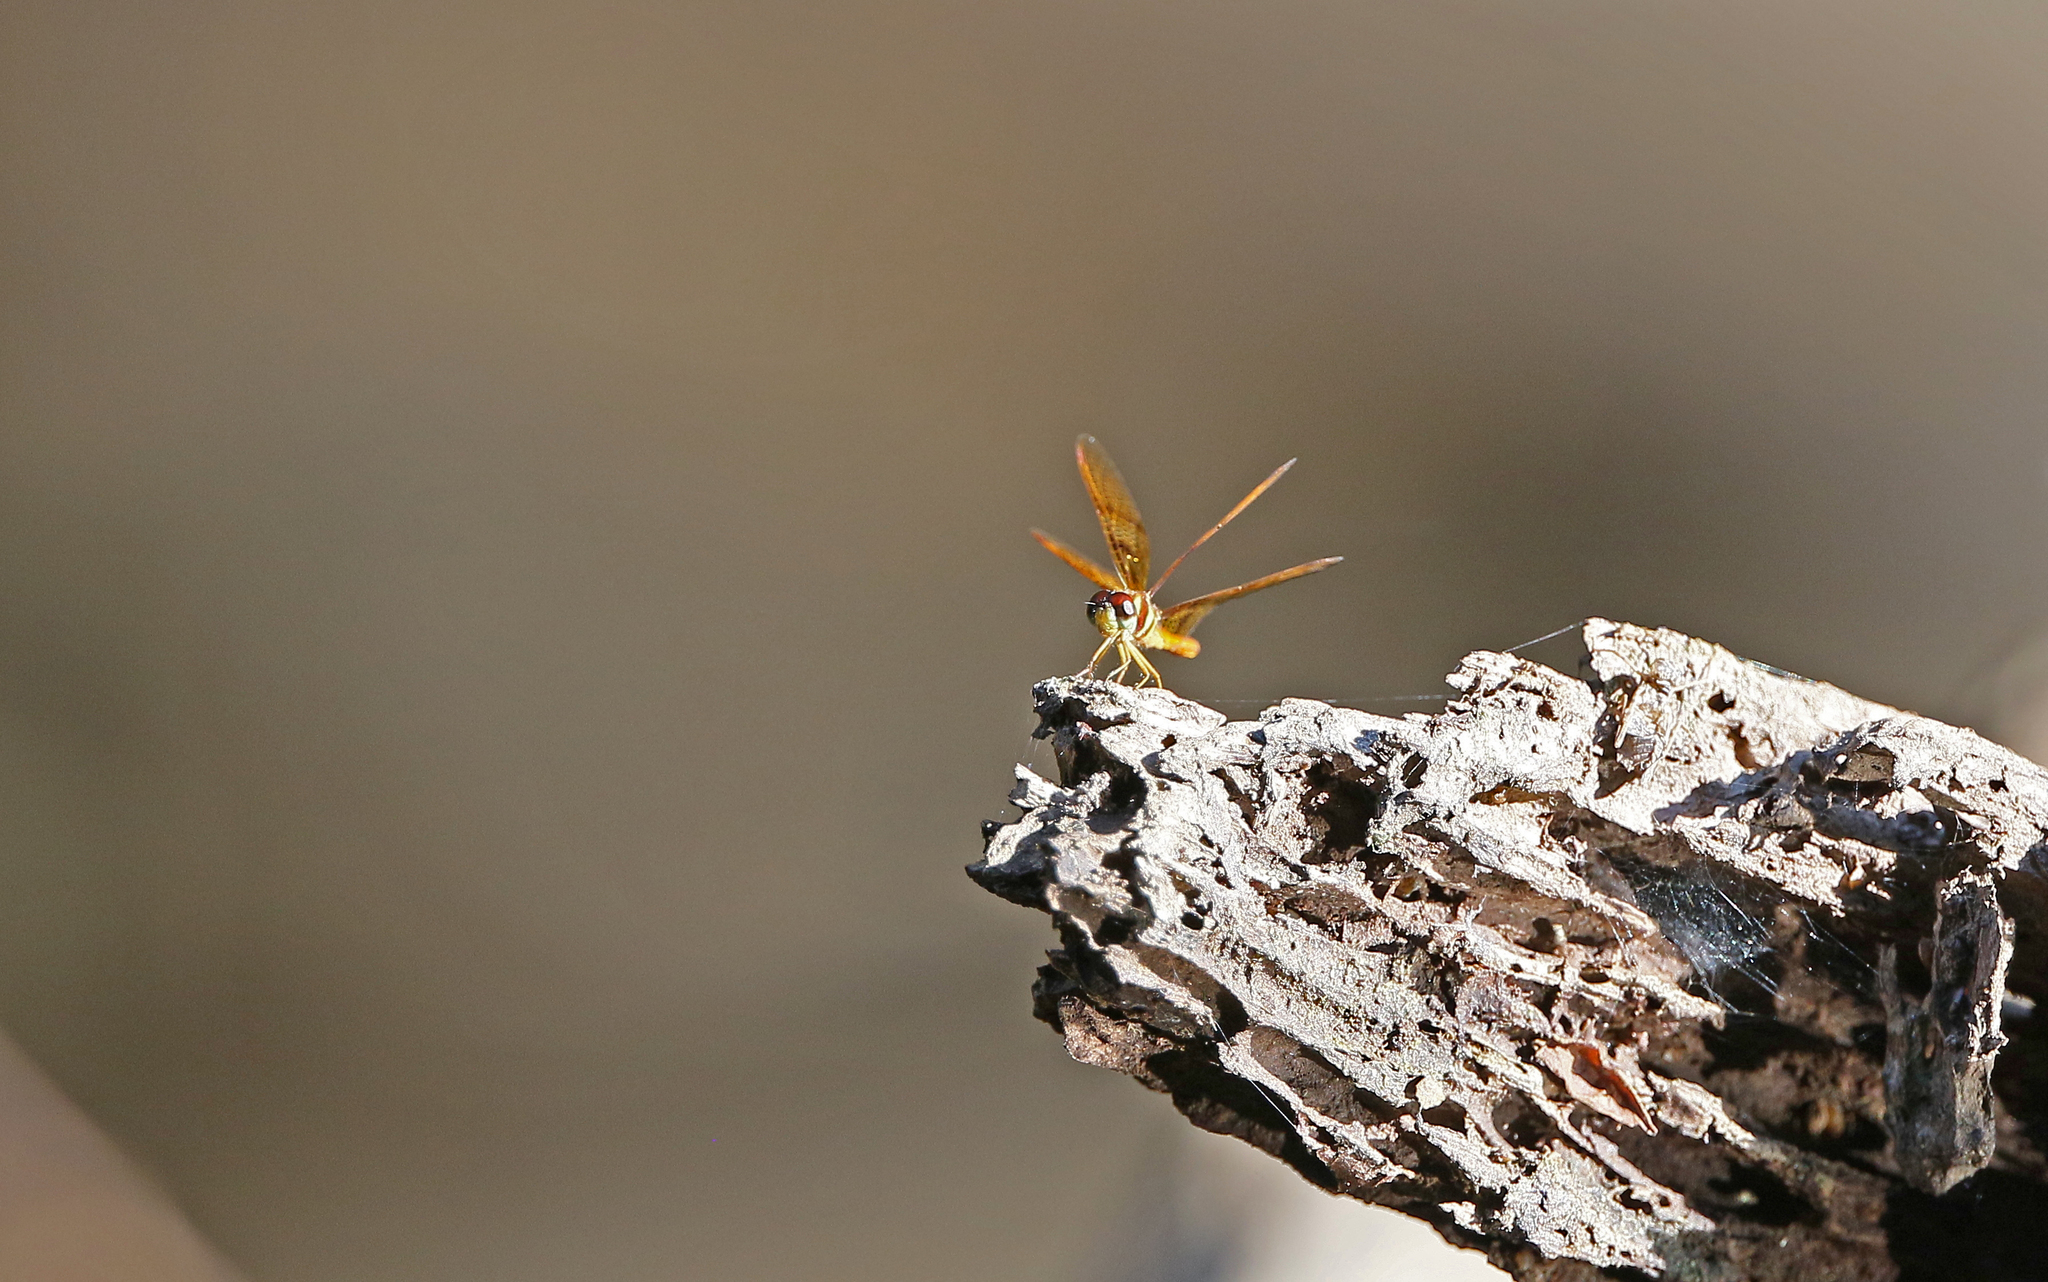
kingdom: Animalia
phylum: Arthropoda
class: Insecta
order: Odonata
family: Libellulidae
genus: Perithemis
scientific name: Perithemis lais
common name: Fine-banded amberwing
